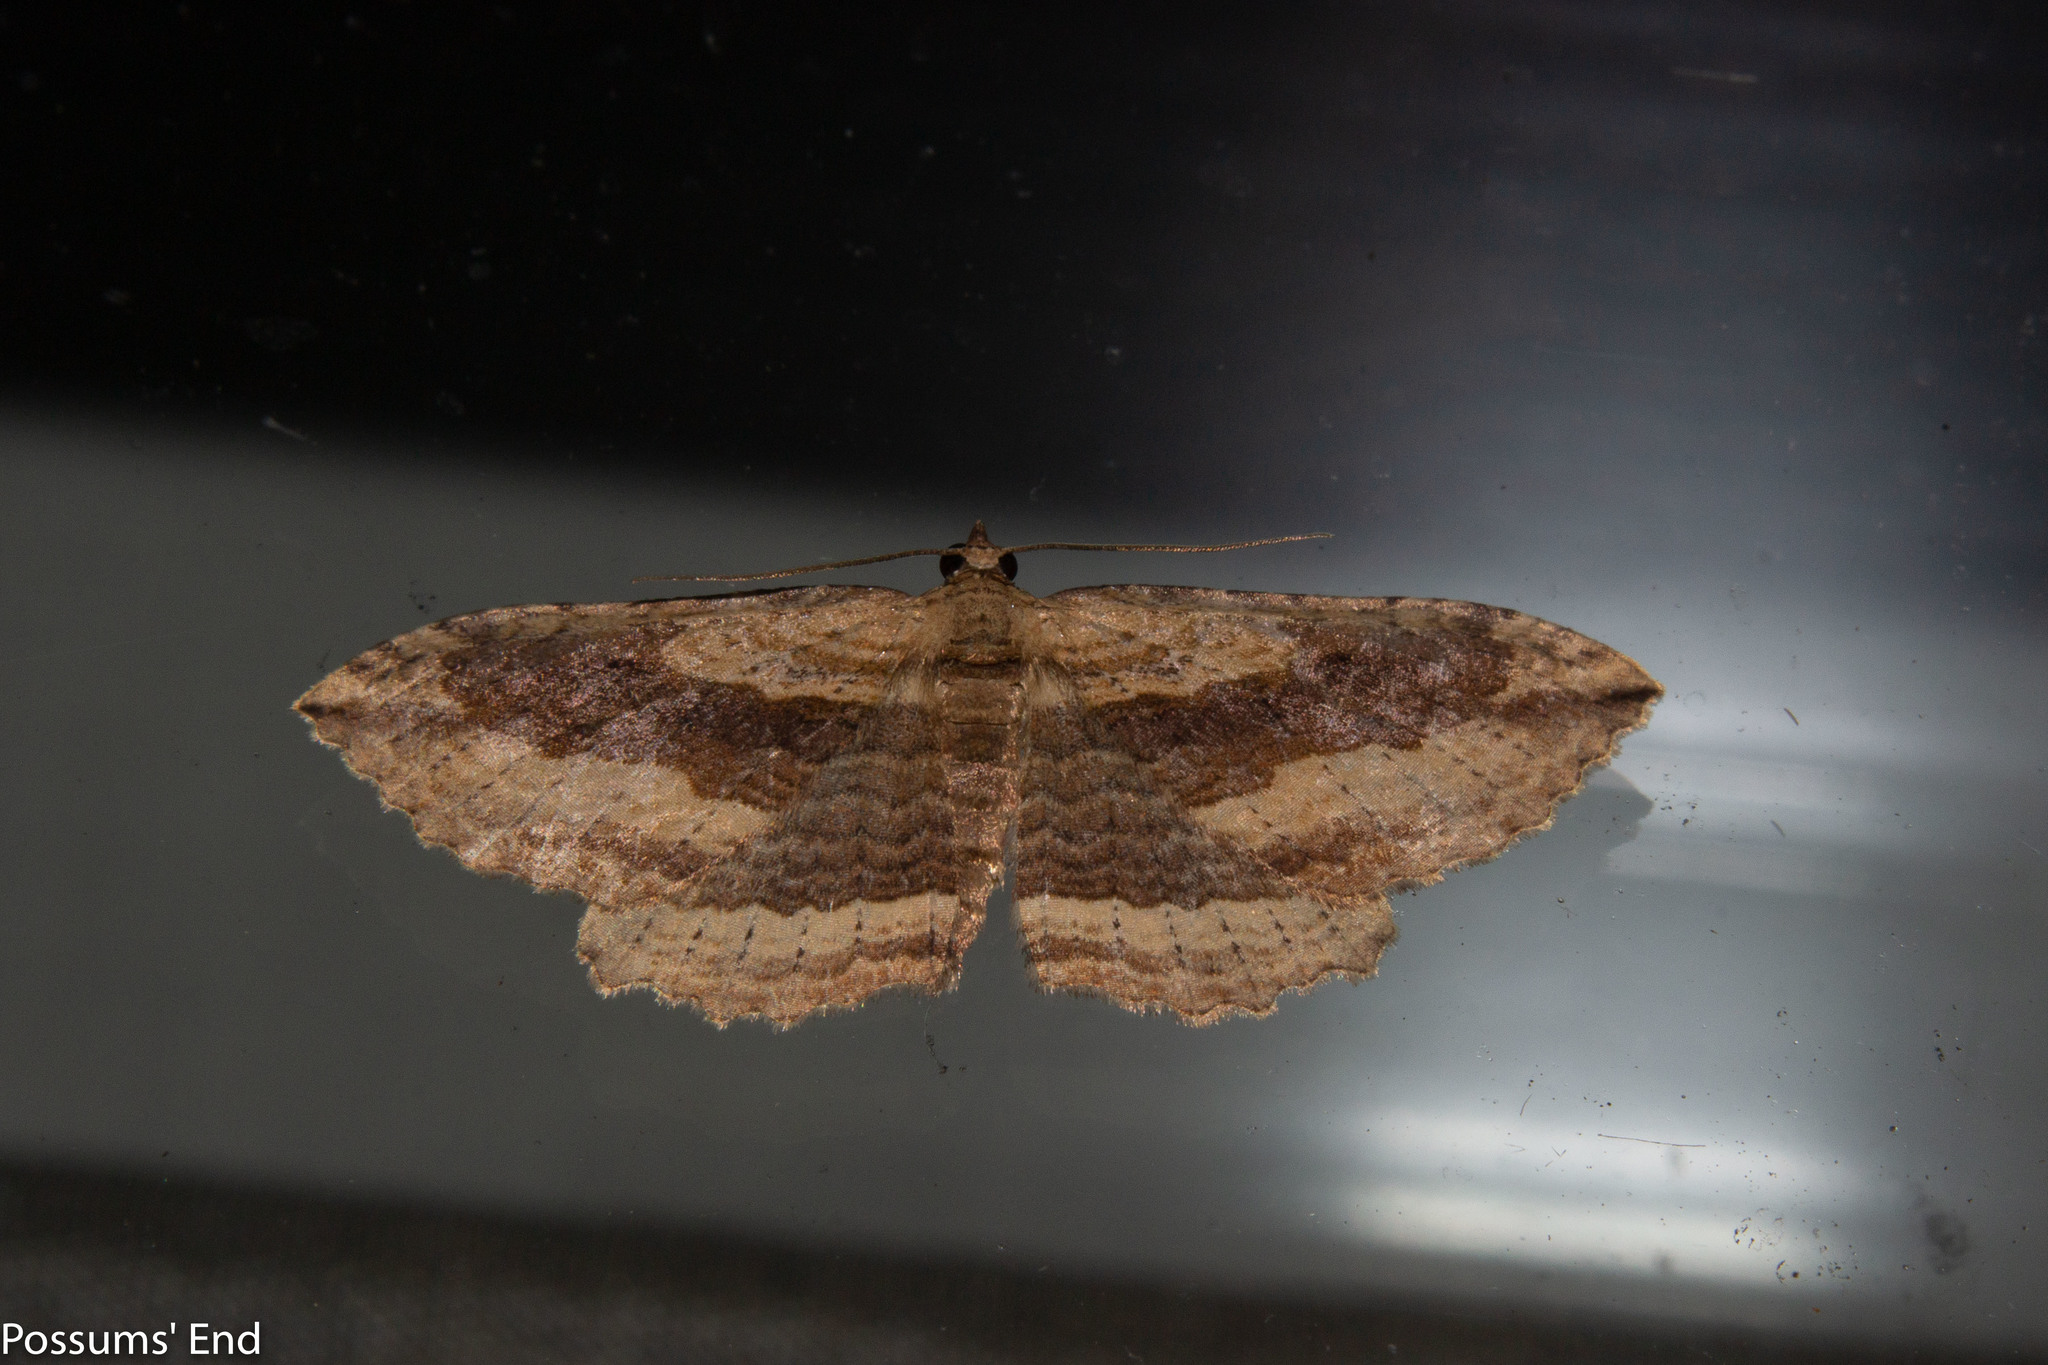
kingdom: Animalia
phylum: Arthropoda
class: Insecta
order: Lepidoptera
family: Geometridae
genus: Austrocidaria
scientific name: Austrocidaria gobiata
